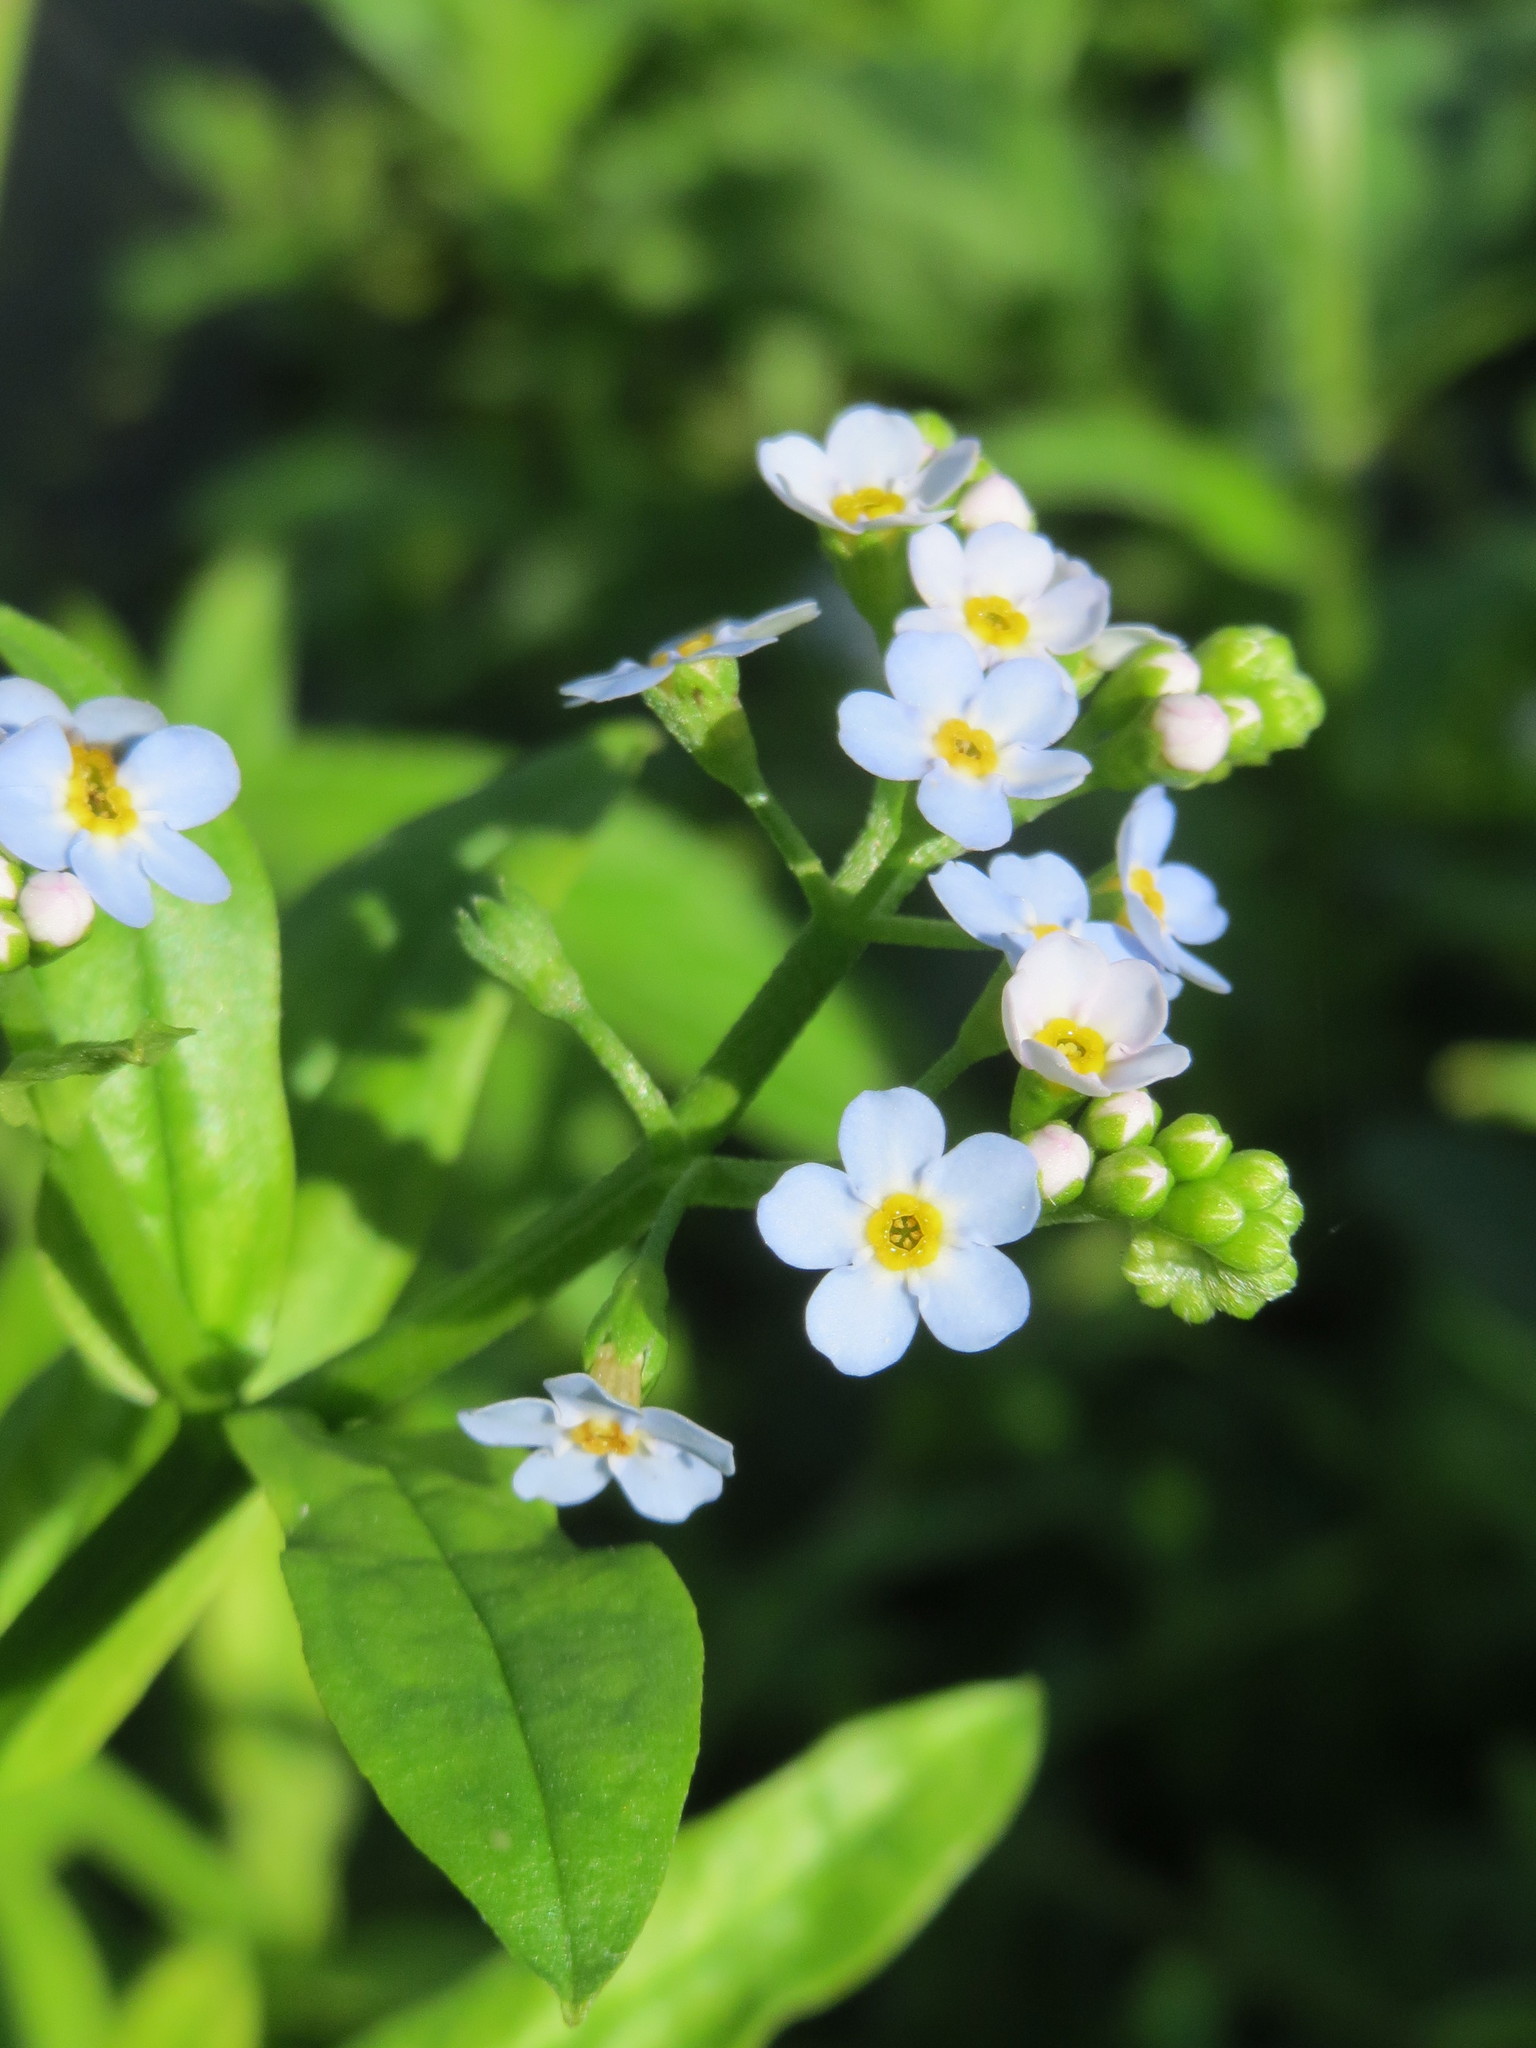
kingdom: Plantae
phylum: Tracheophyta
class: Magnoliopsida
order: Boraginales
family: Boraginaceae
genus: Myosotis
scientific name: Myosotis scorpioides
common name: Water forget-me-not
